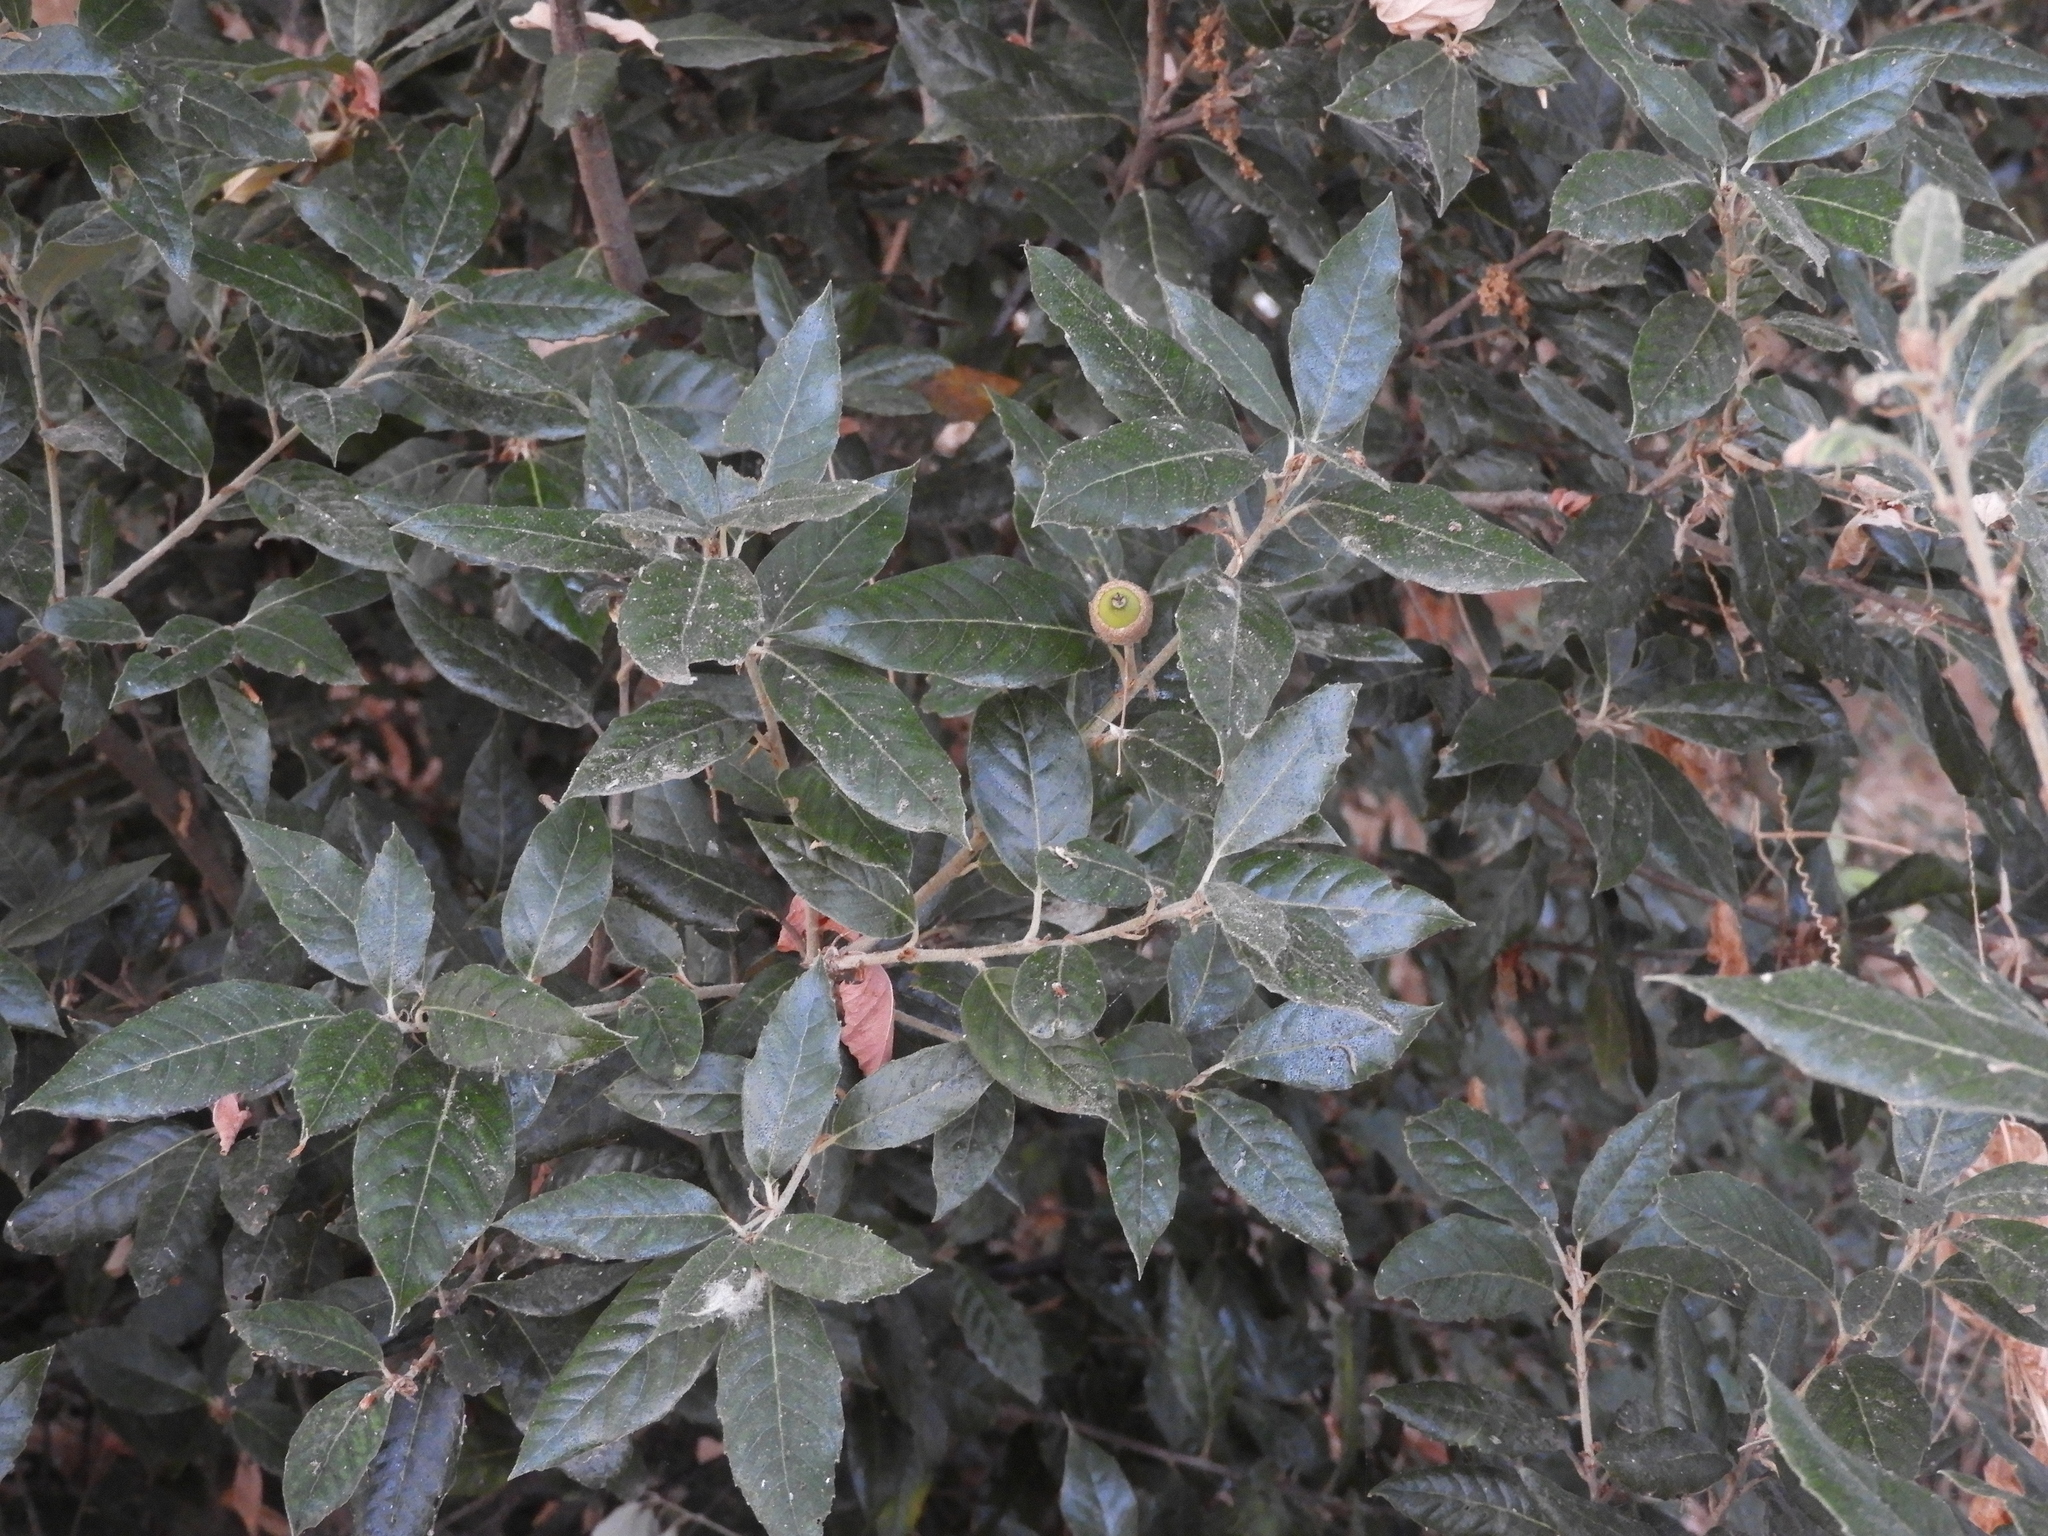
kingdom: Plantae
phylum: Tracheophyta
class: Magnoliopsida
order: Fagales
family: Fagaceae
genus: Quercus
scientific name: Quercus ilex
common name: Evergreen oak
